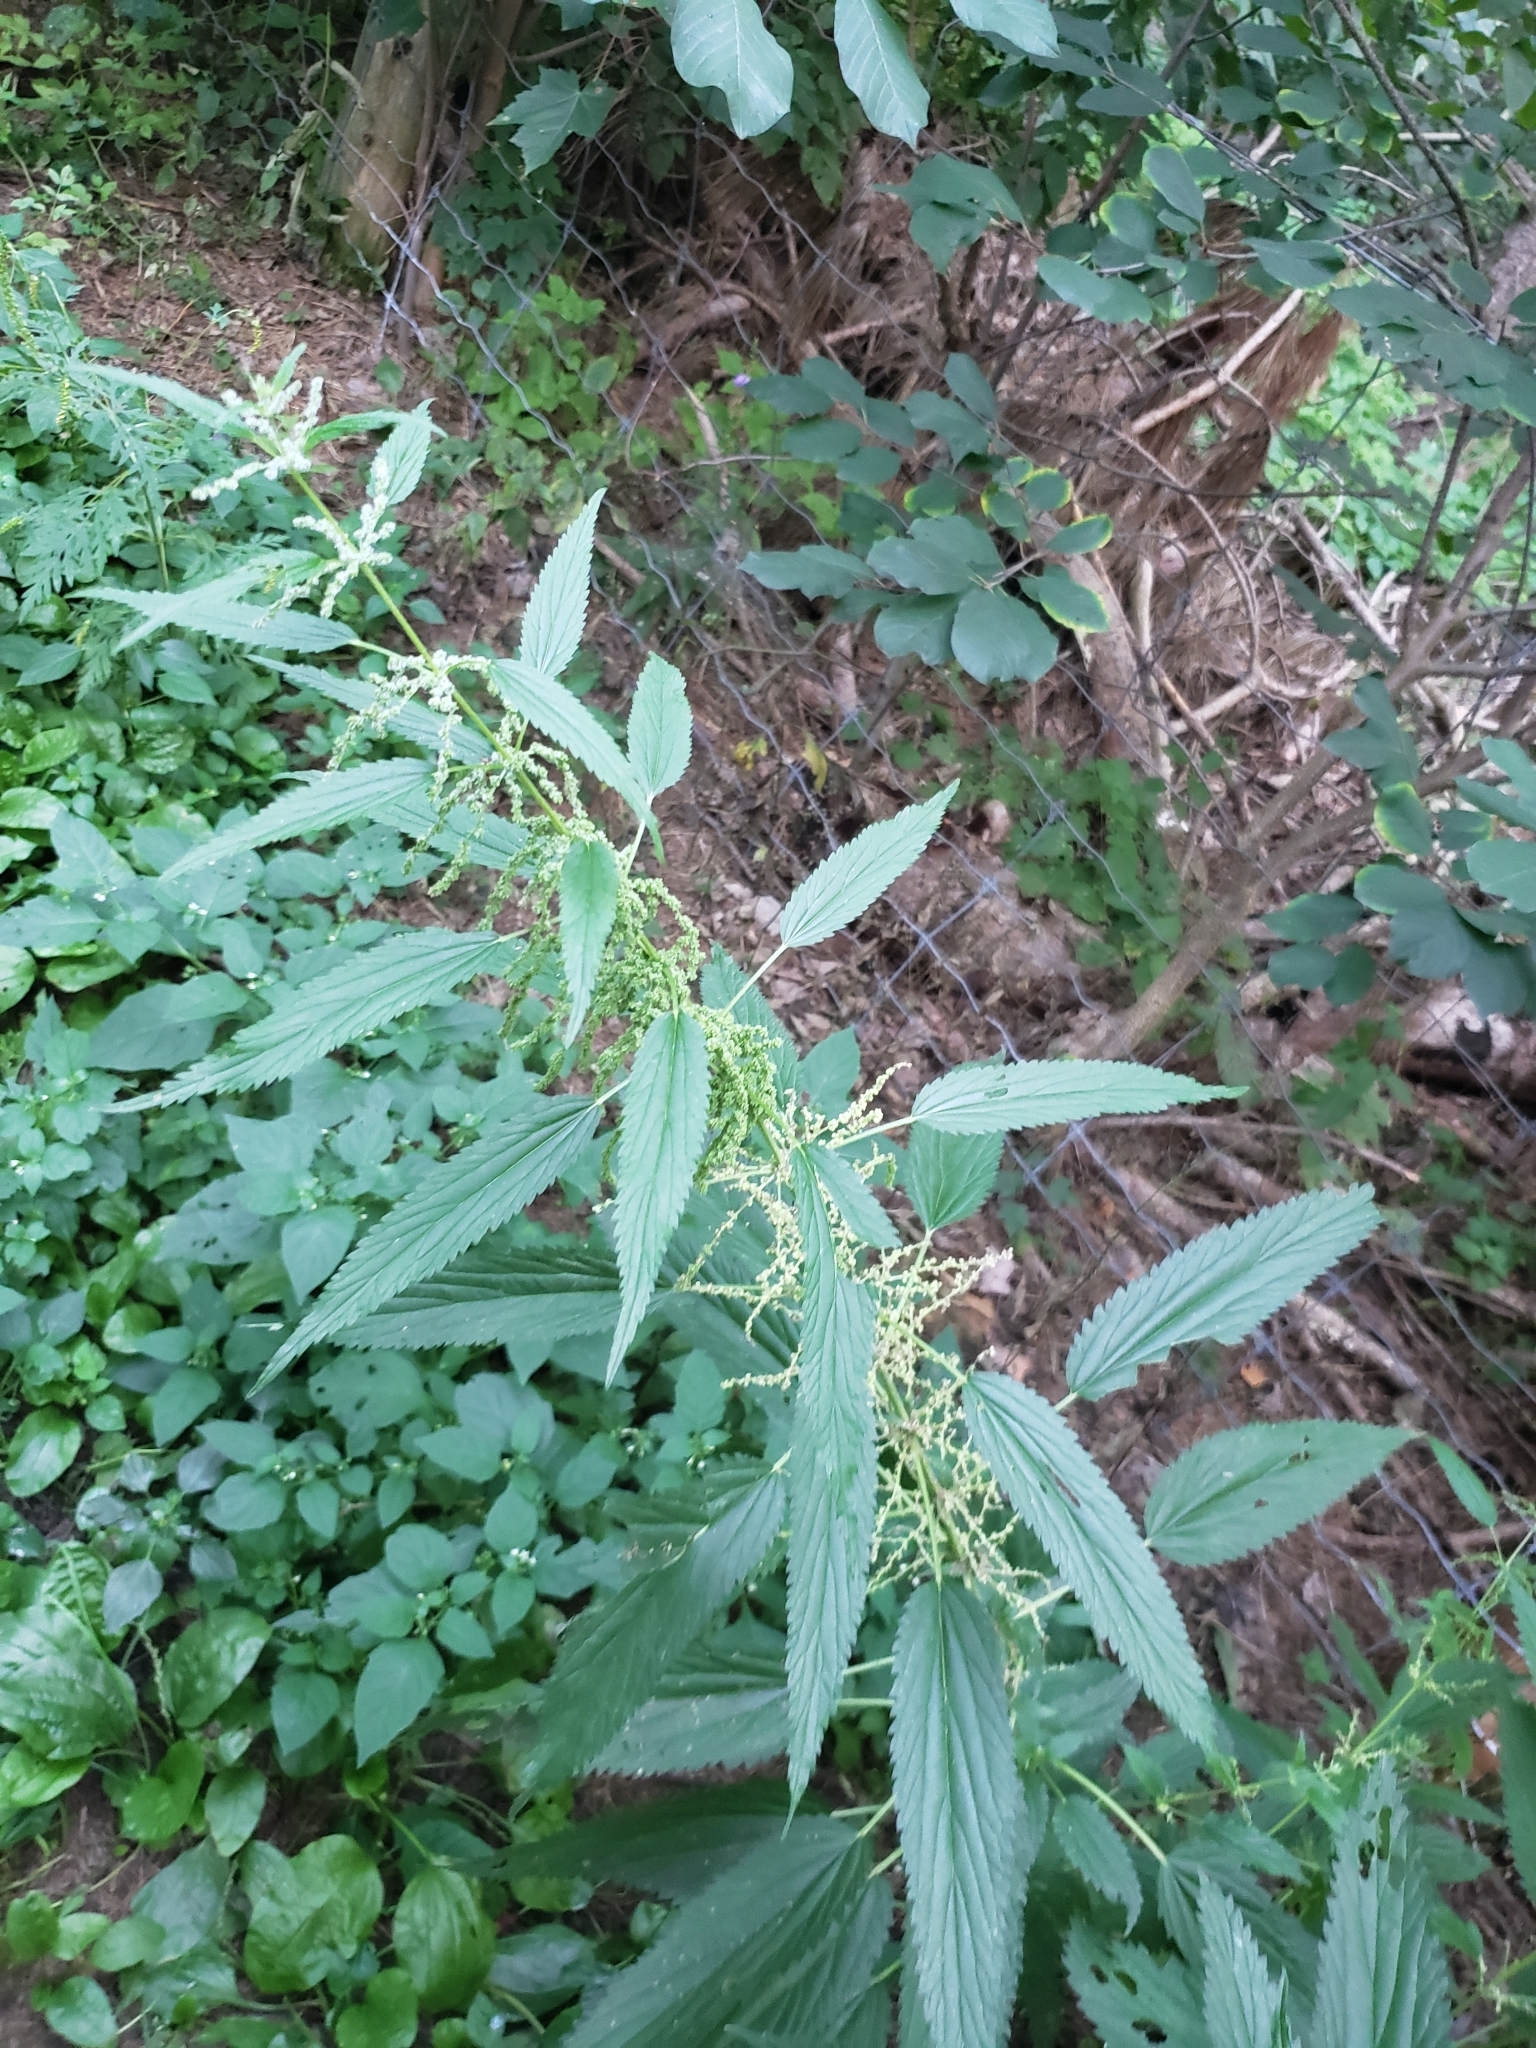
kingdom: Plantae
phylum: Tracheophyta
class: Magnoliopsida
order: Rosales
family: Urticaceae
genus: Urtica
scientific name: Urtica dioica
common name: Common nettle
